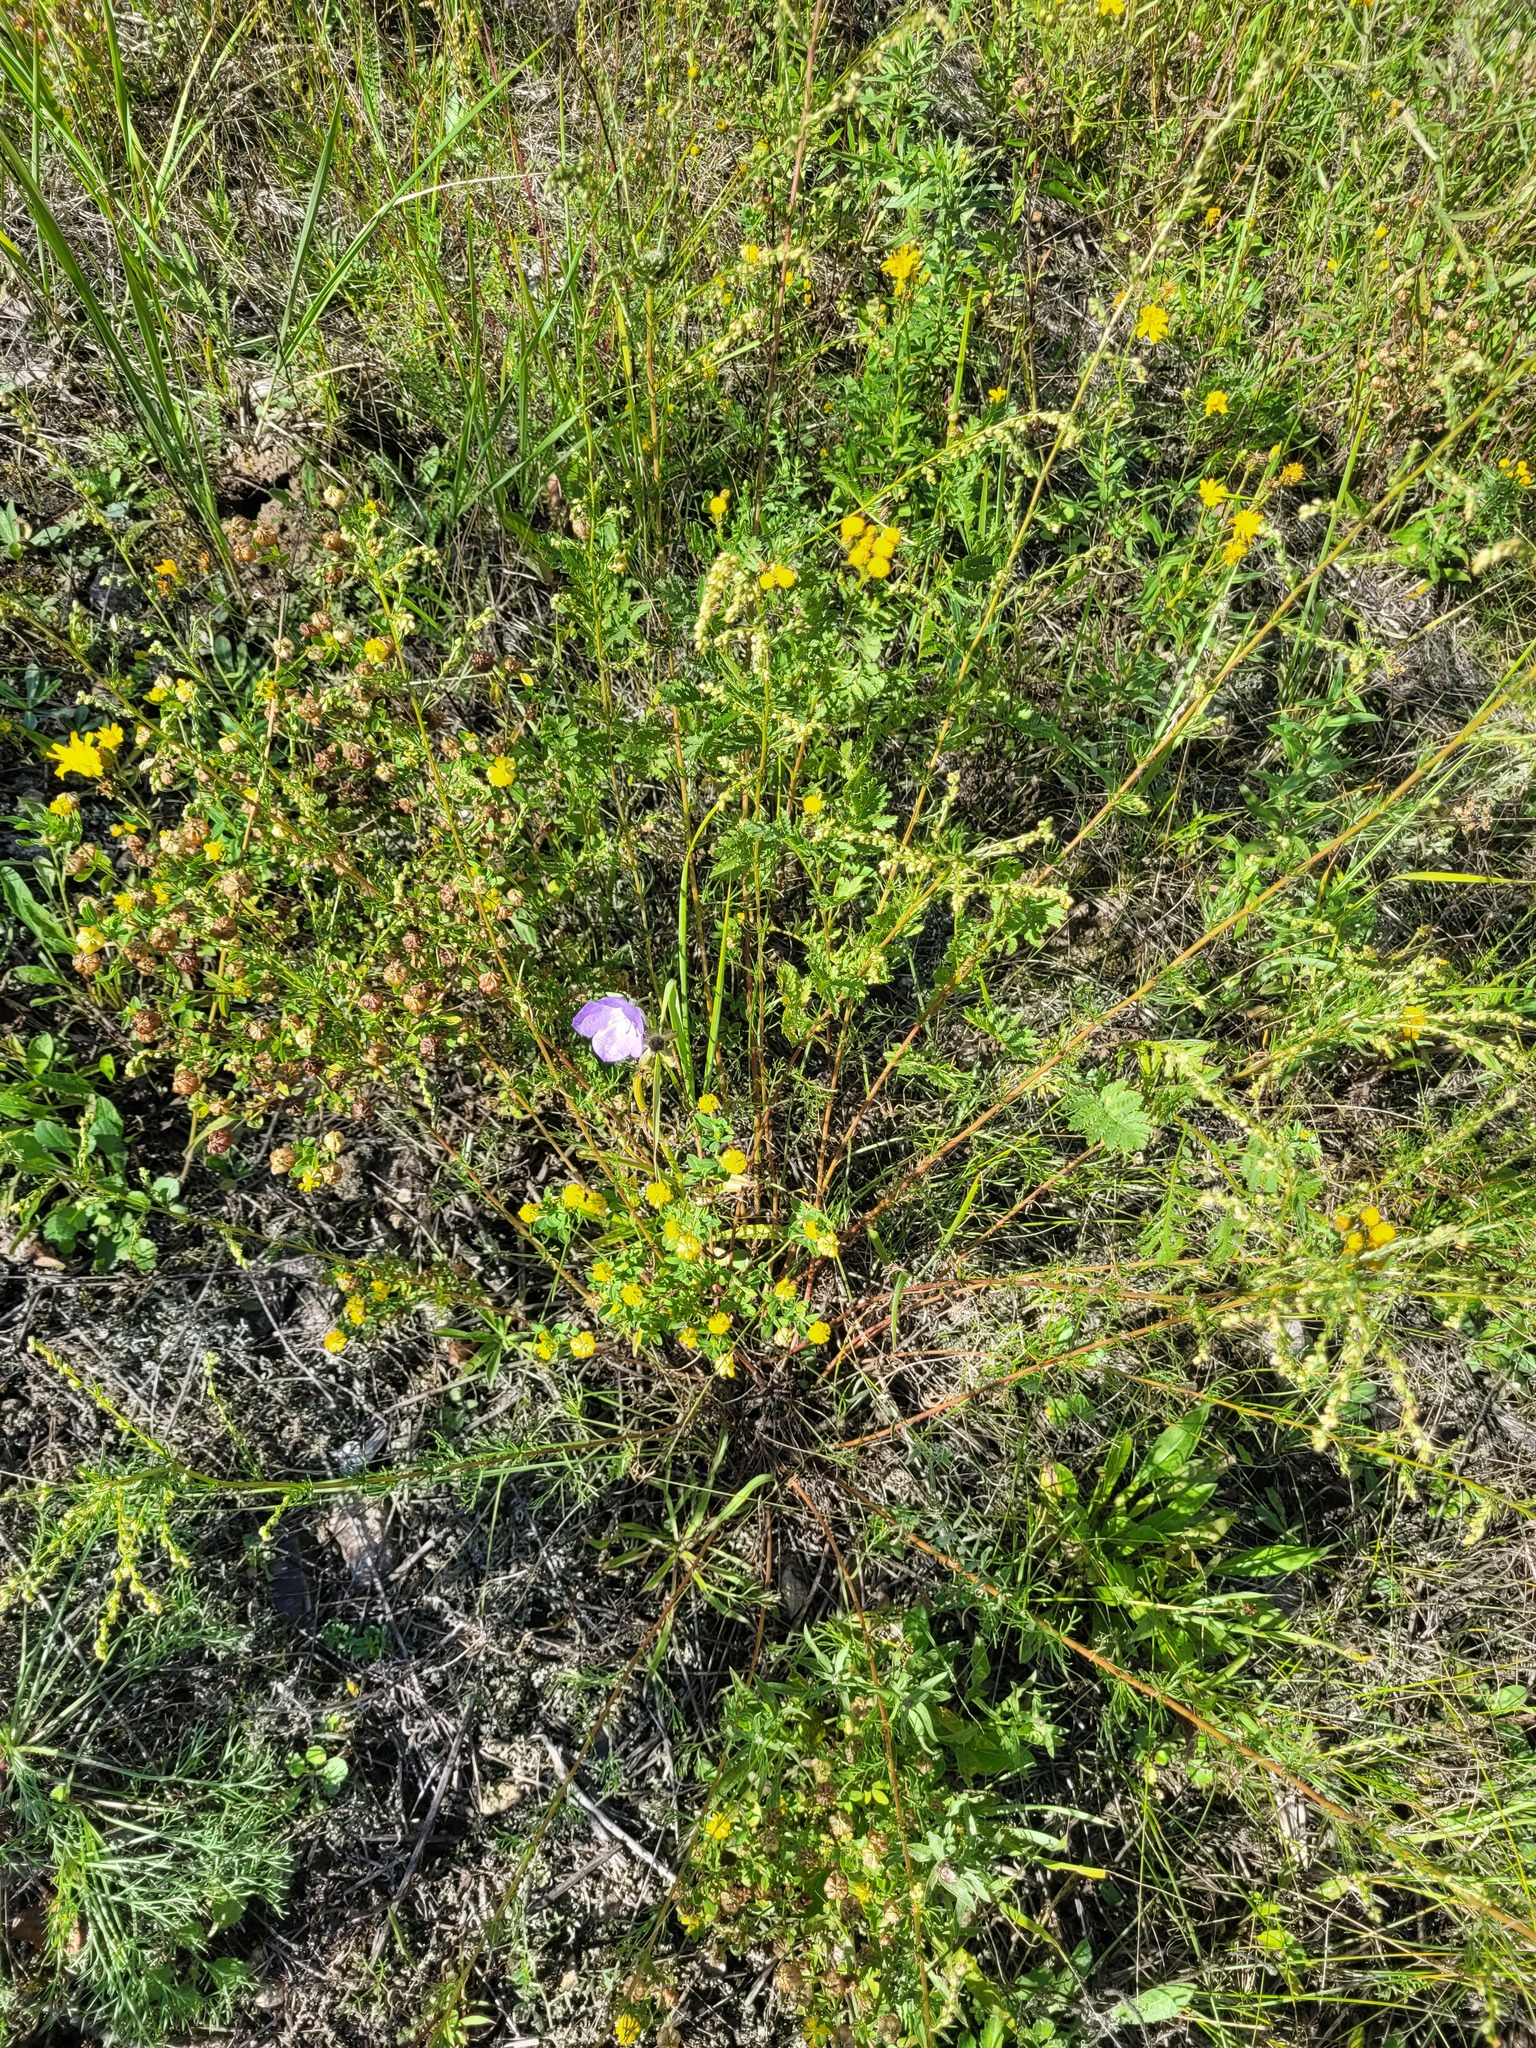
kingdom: Plantae
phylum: Tracheophyta
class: Magnoliopsida
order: Asterales
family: Campanulaceae
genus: Campanula
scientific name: Campanula persicifolia
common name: Peach-leaved bellflower
